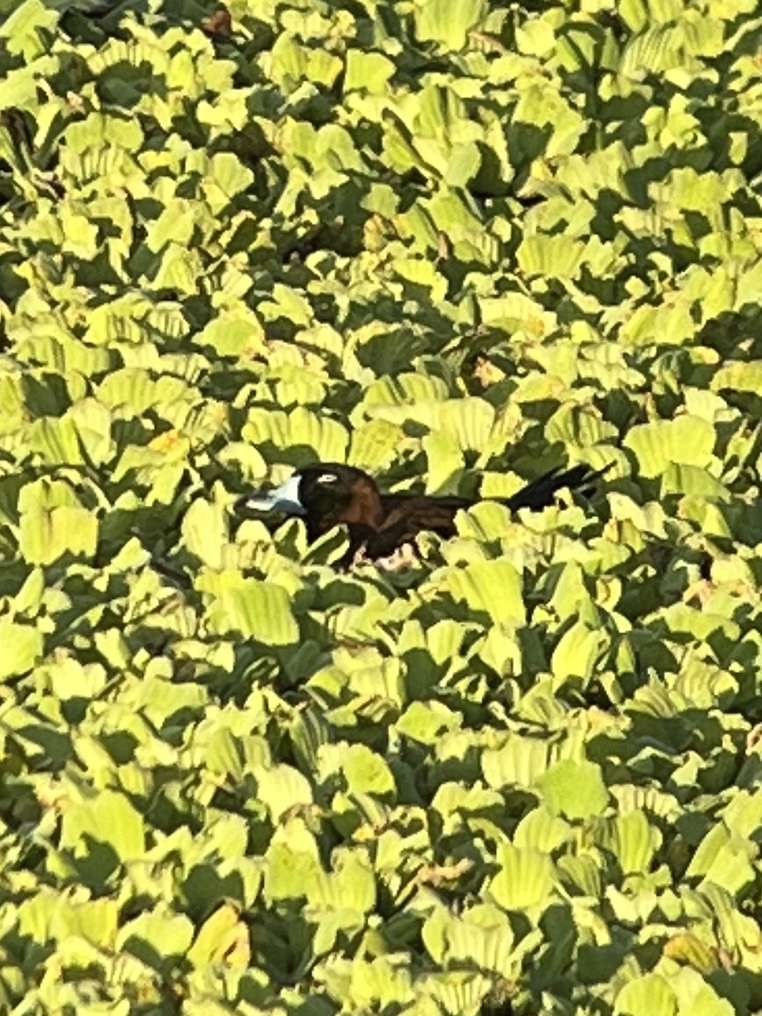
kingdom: Animalia
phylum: Chordata
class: Aves
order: Anseriformes
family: Anatidae
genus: Nomonyx
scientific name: Nomonyx dominicus
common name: Masked duck
